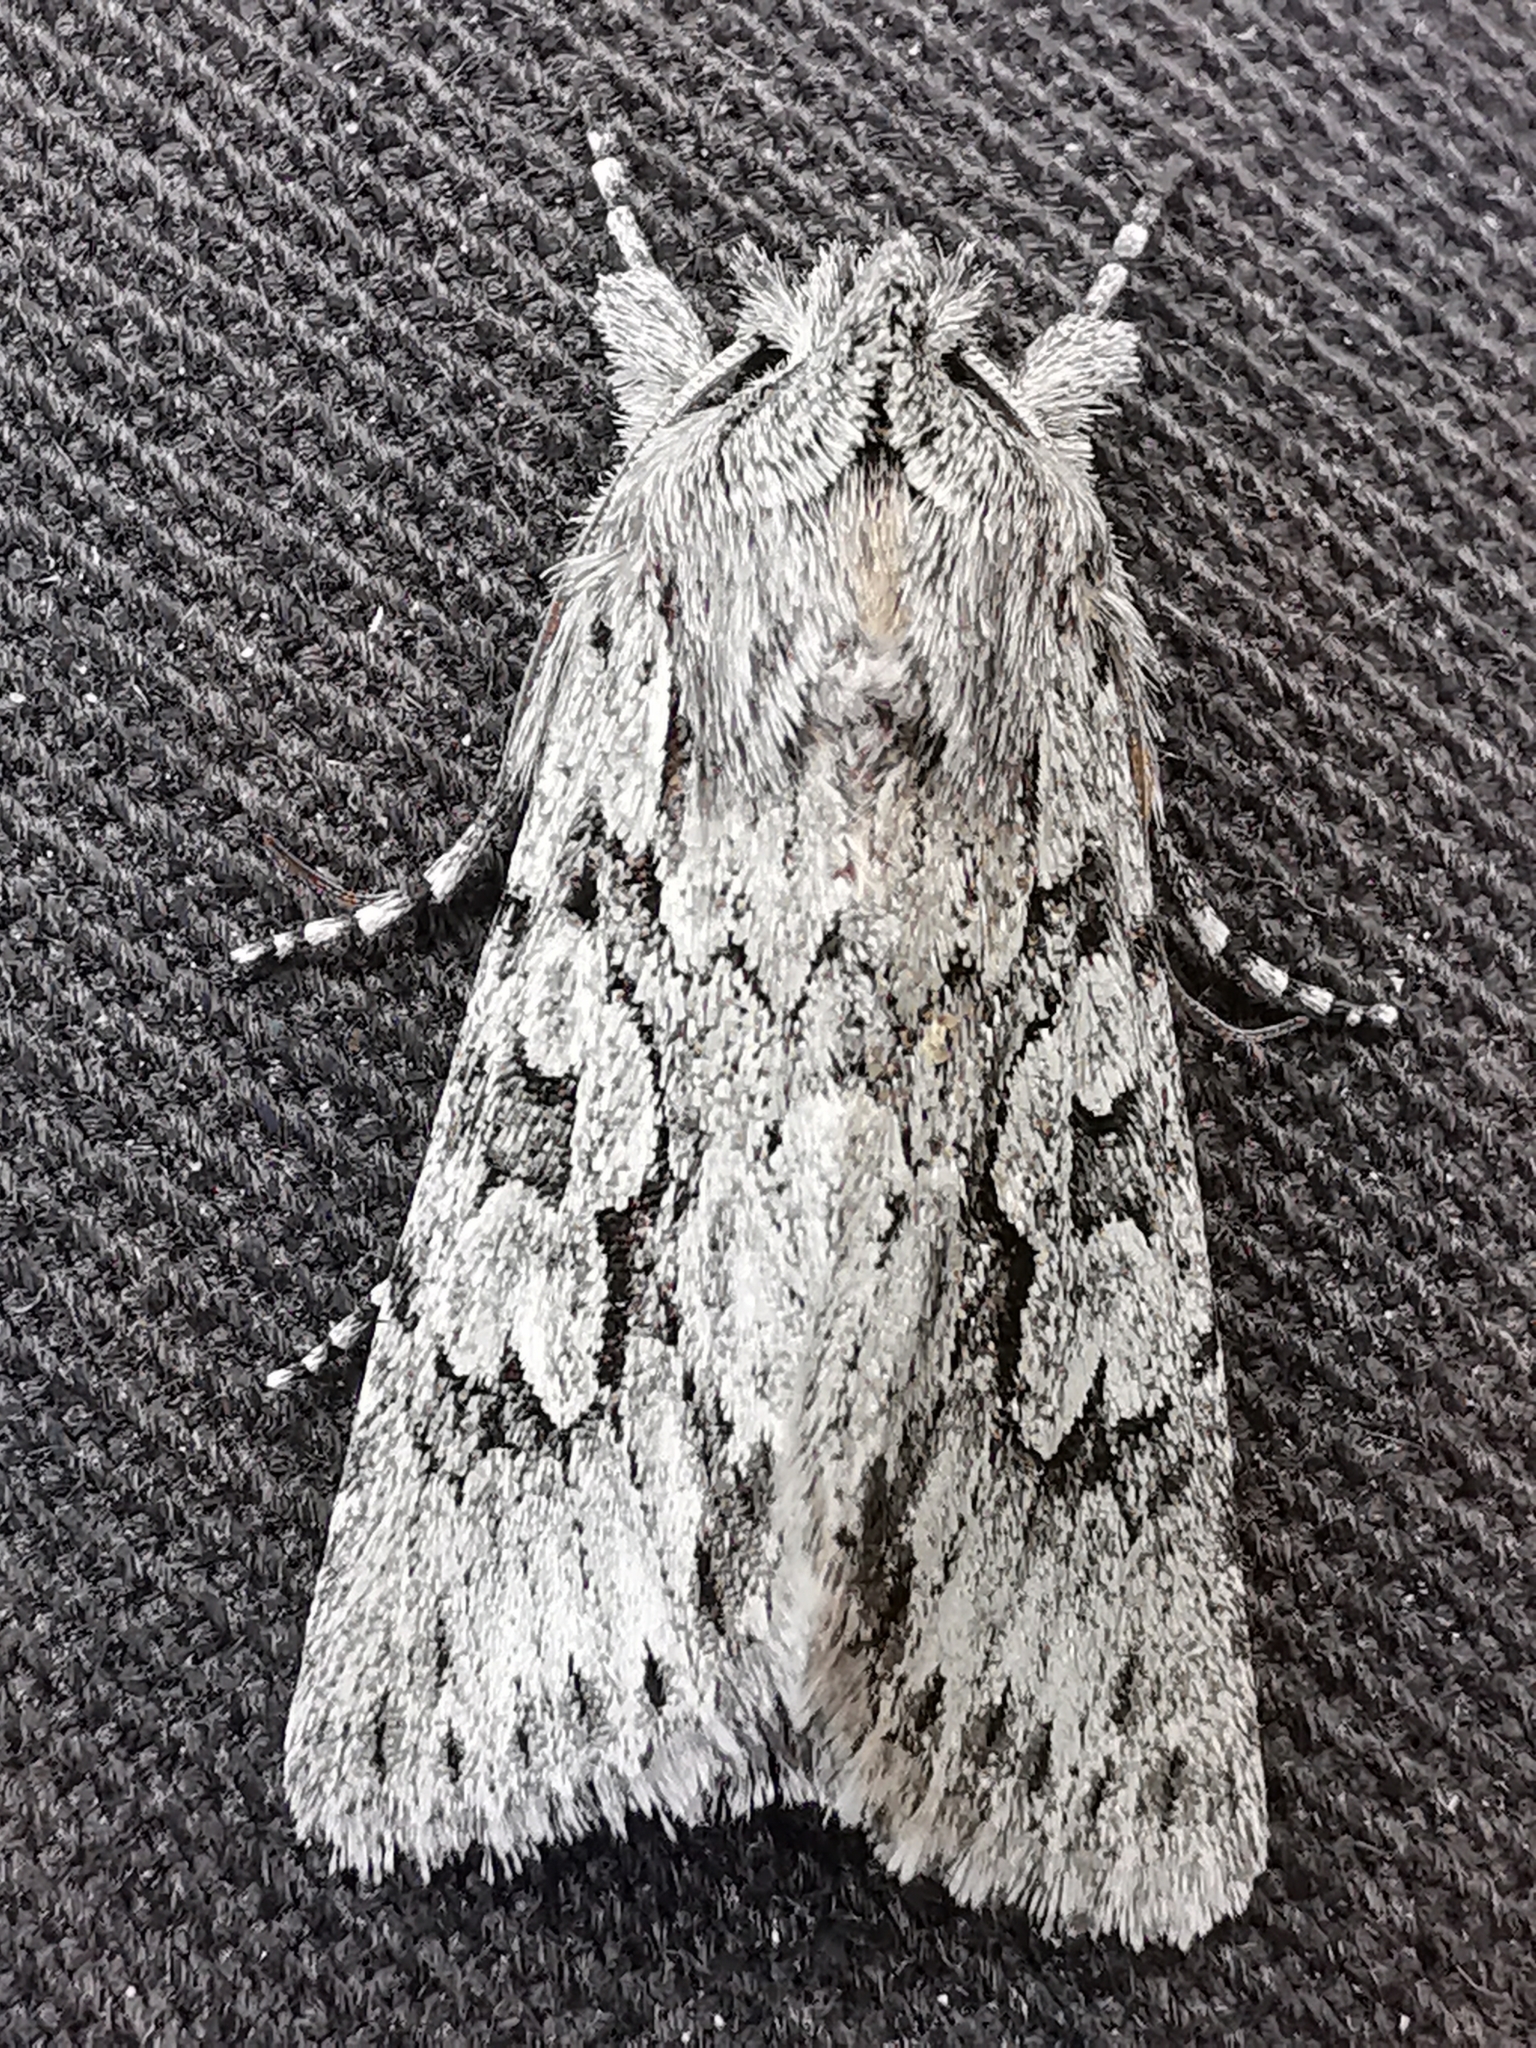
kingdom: Animalia
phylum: Arthropoda
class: Insecta
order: Lepidoptera
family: Noctuidae
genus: Xylocampa
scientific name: Xylocampa areola
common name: Early grey
